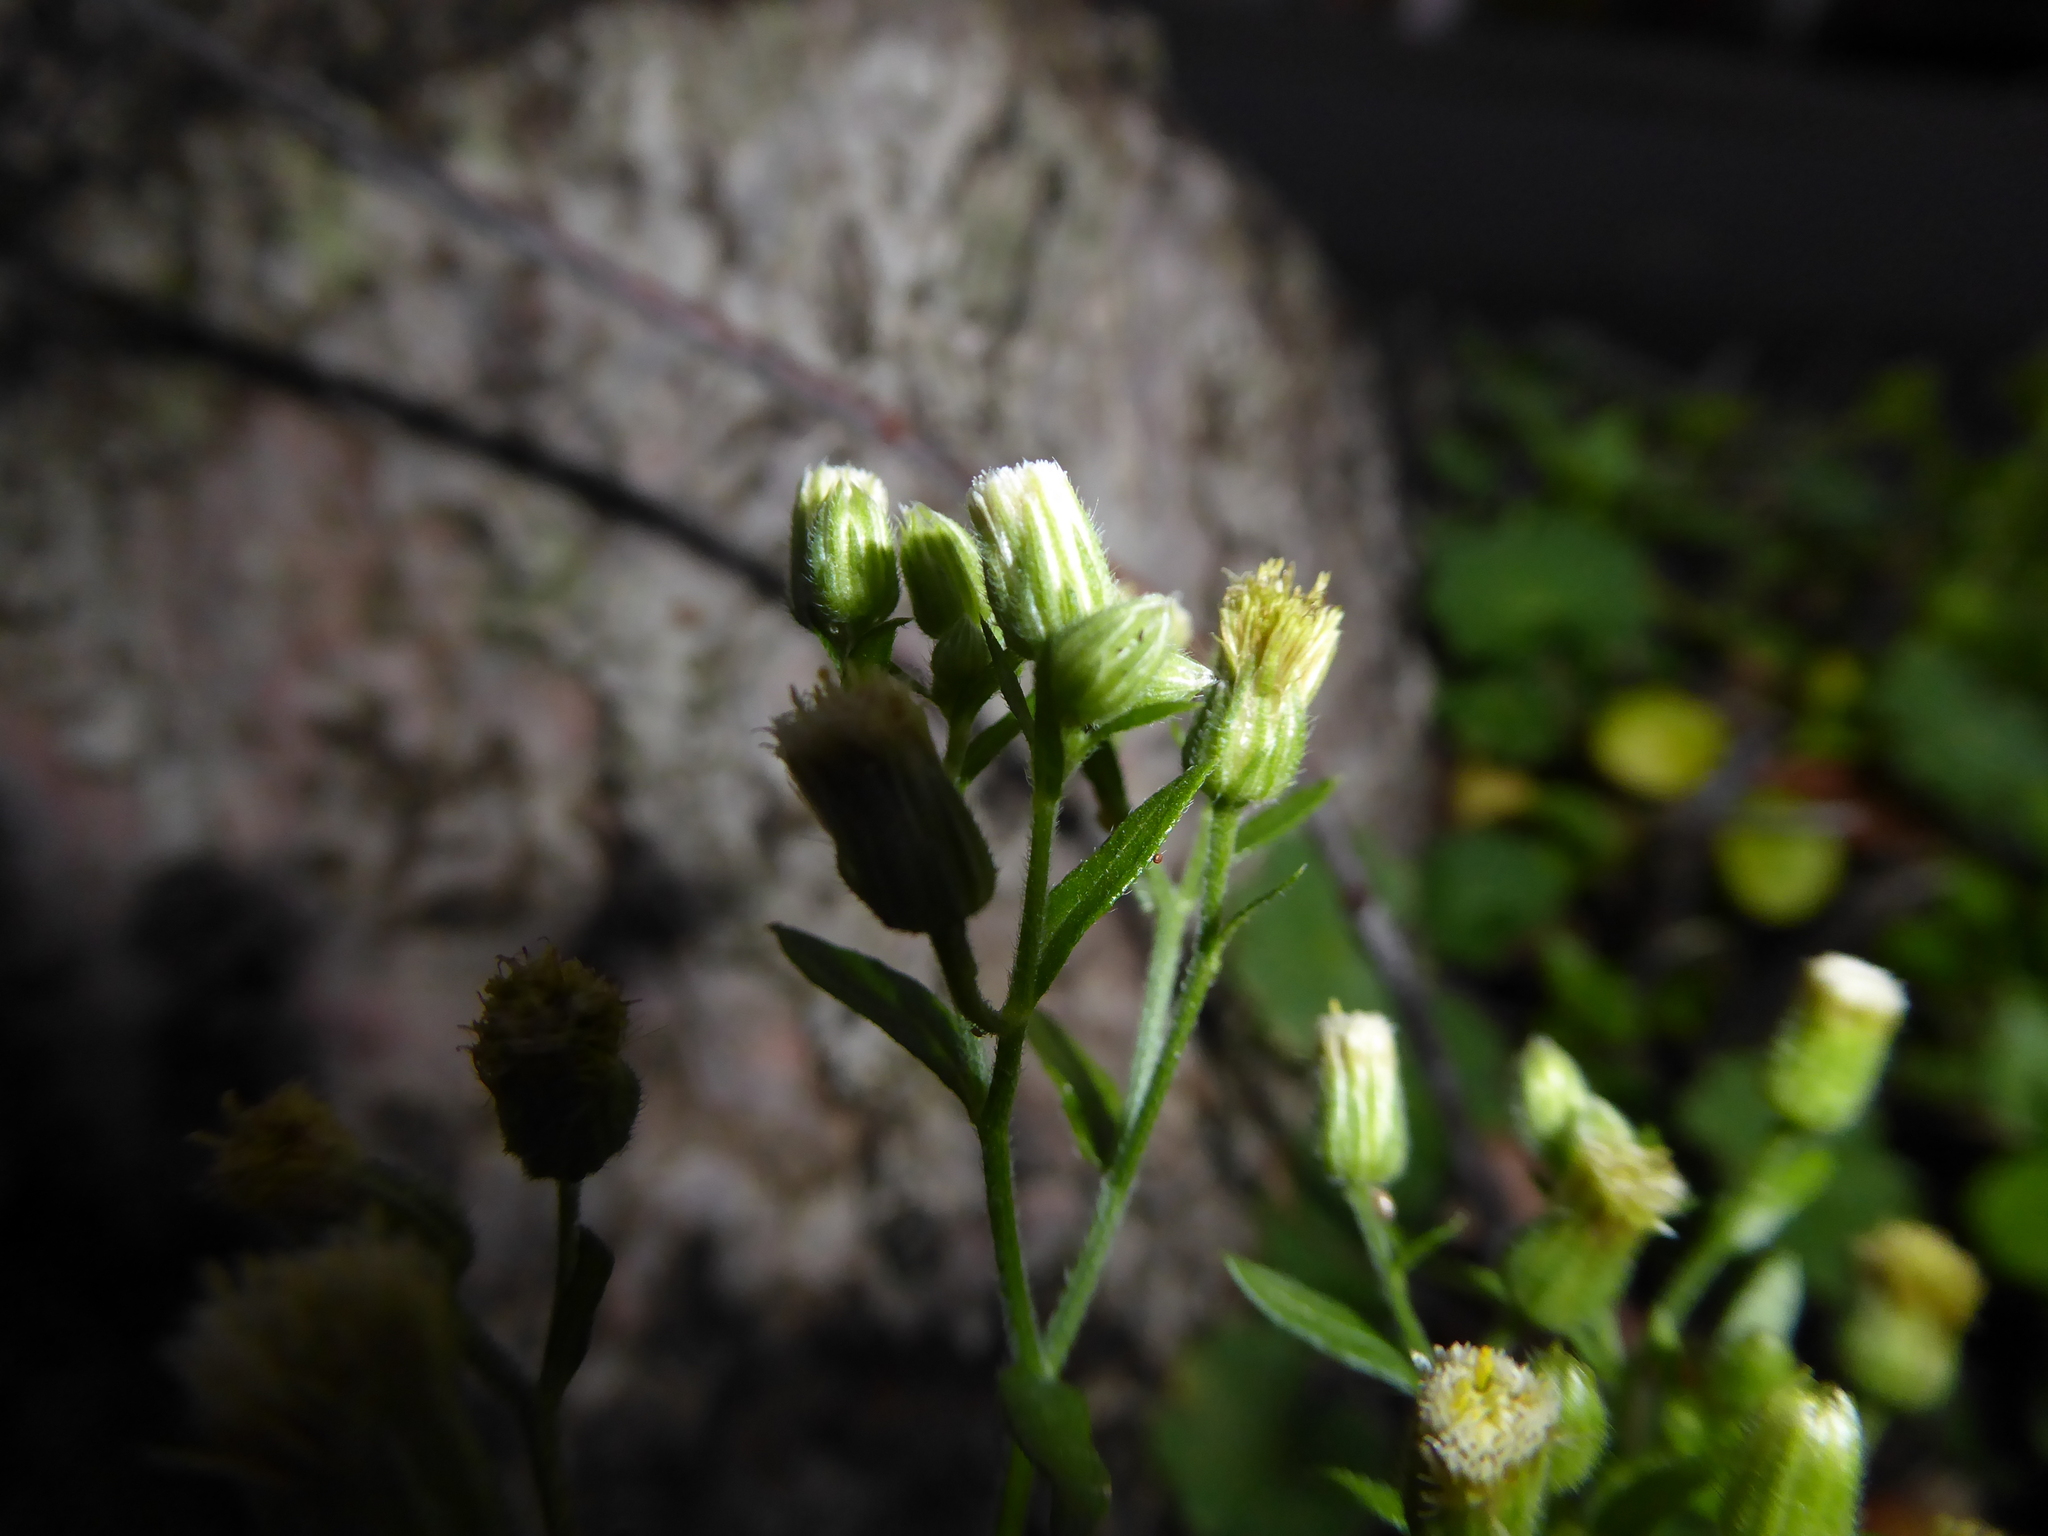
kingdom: Plantae
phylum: Tracheophyta
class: Magnoliopsida
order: Asterales
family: Asteraceae
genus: Erigeron
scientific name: Erigeron sumatrensis
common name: Daisy
